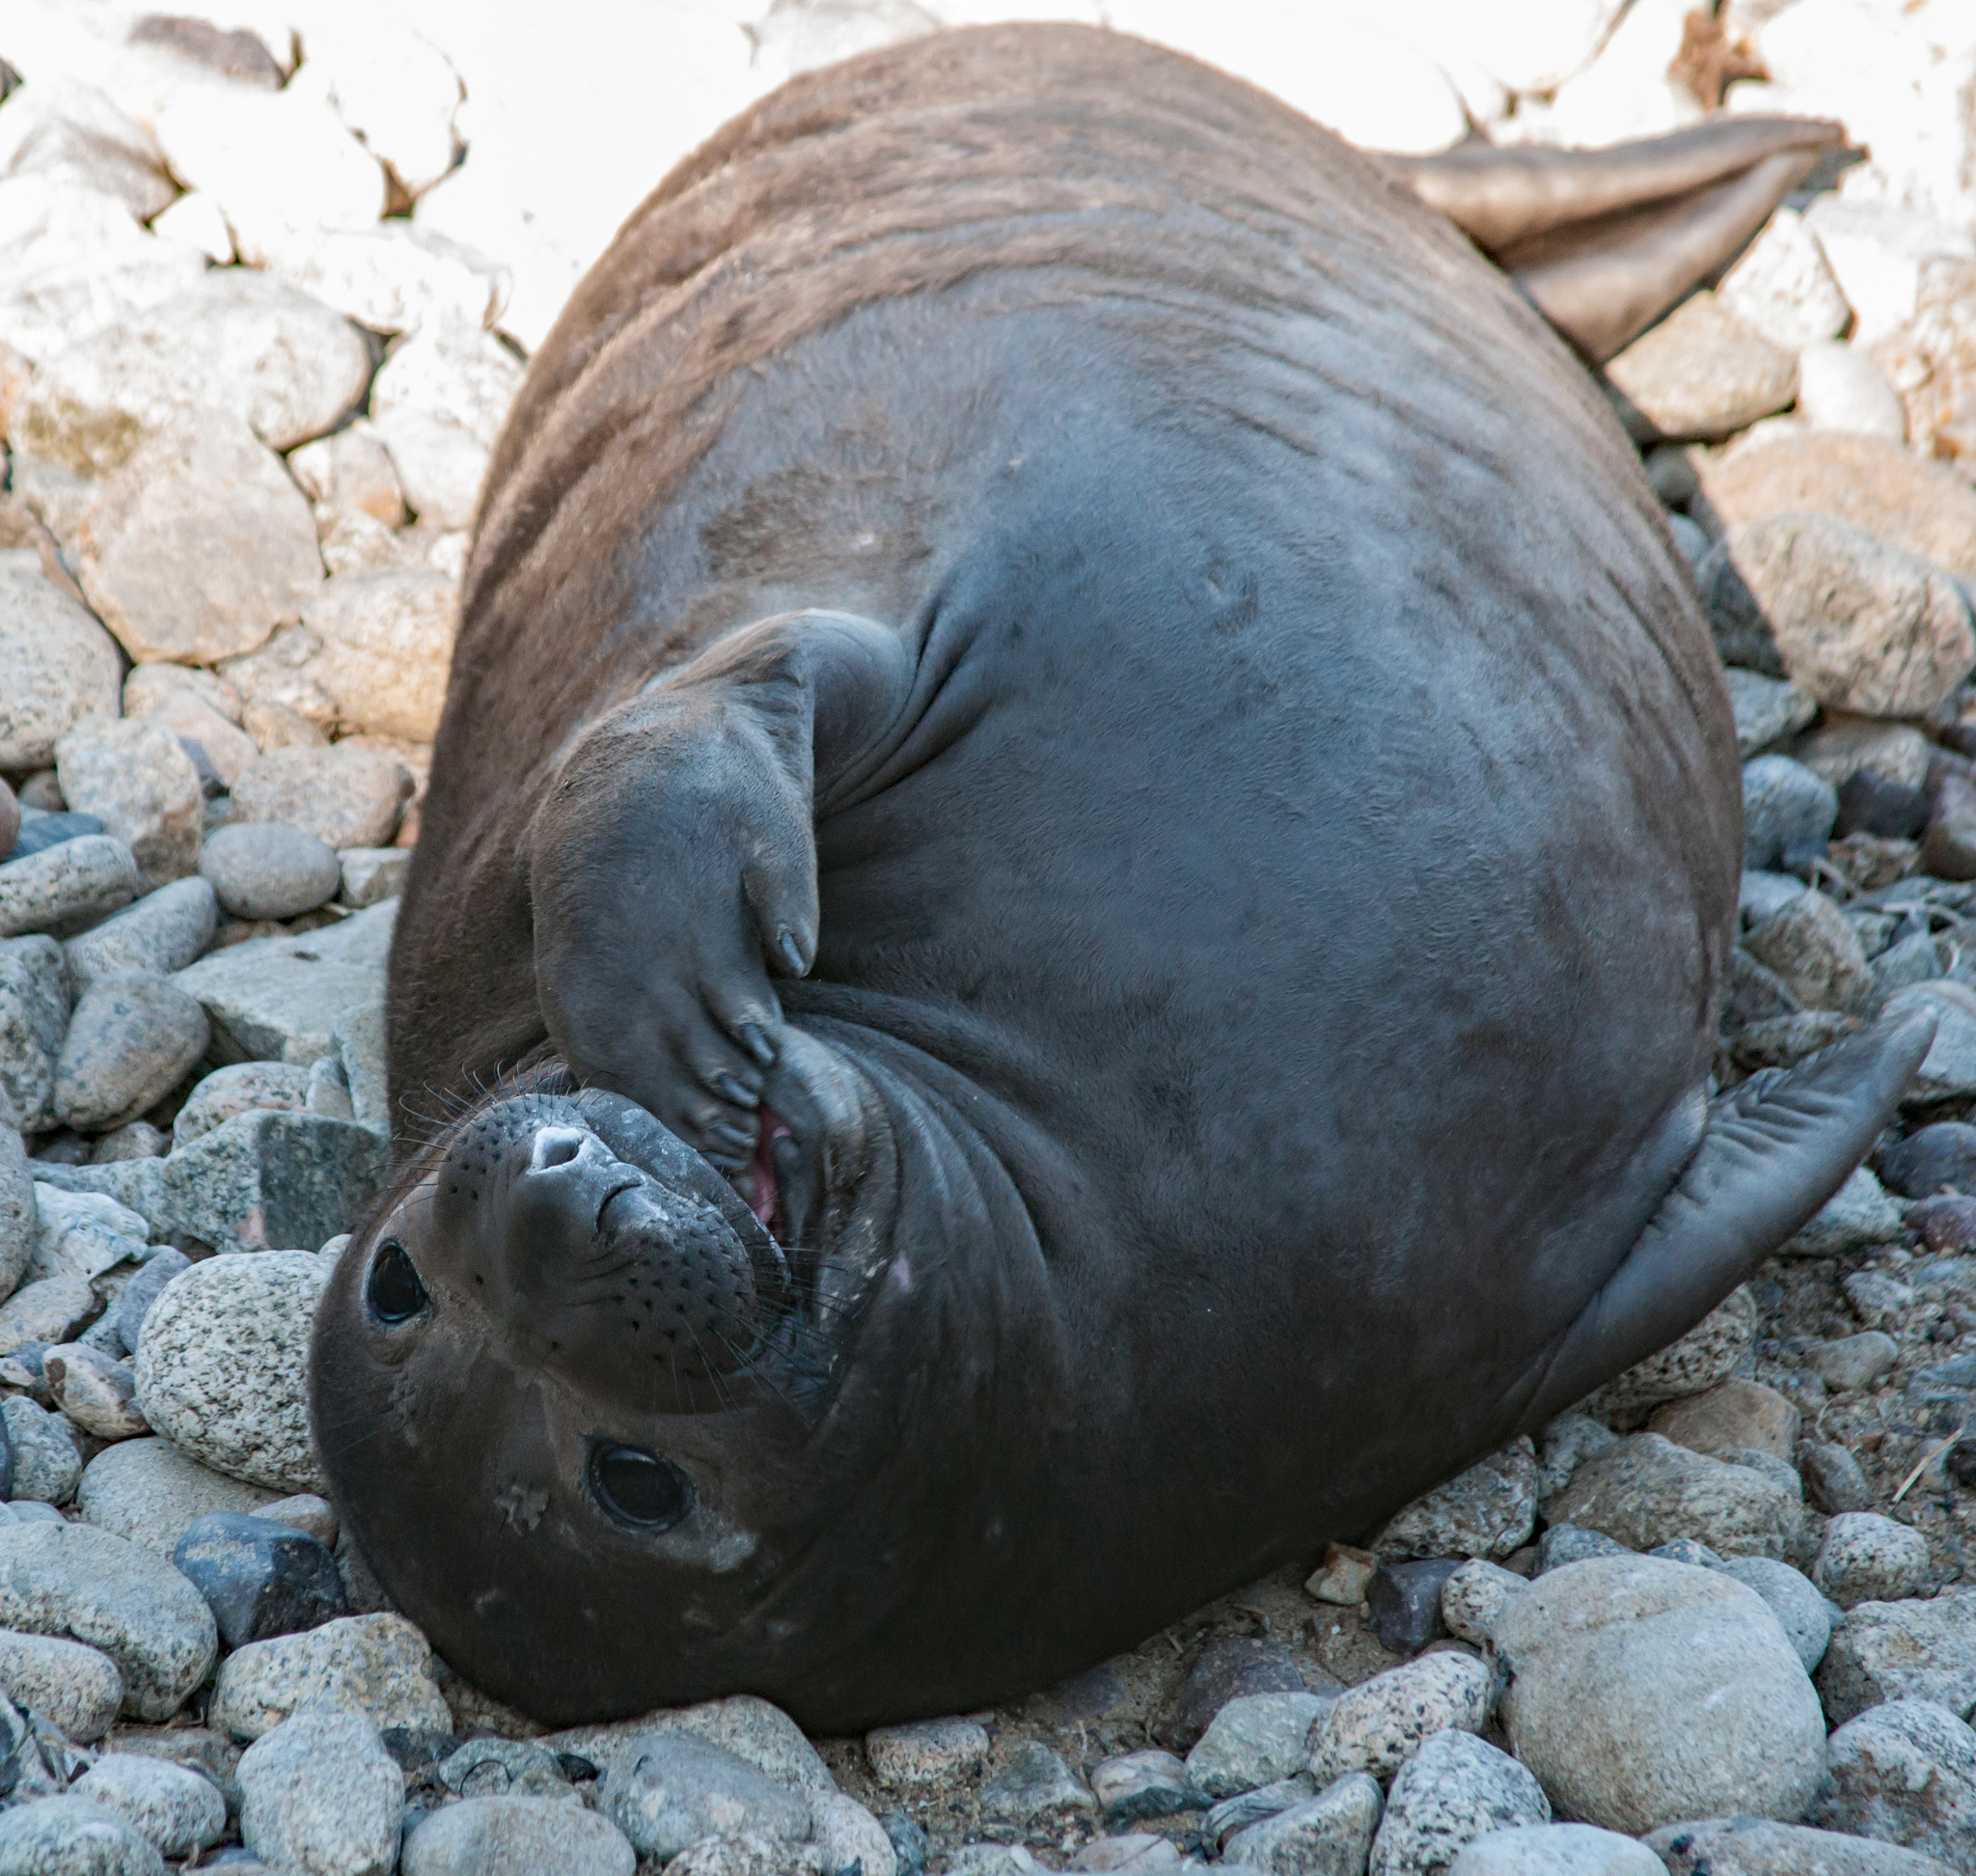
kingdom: Animalia
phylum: Chordata
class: Mammalia
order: Carnivora
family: Phocidae
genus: Mirounga
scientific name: Mirounga angustirostris
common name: Northern elephant seal
